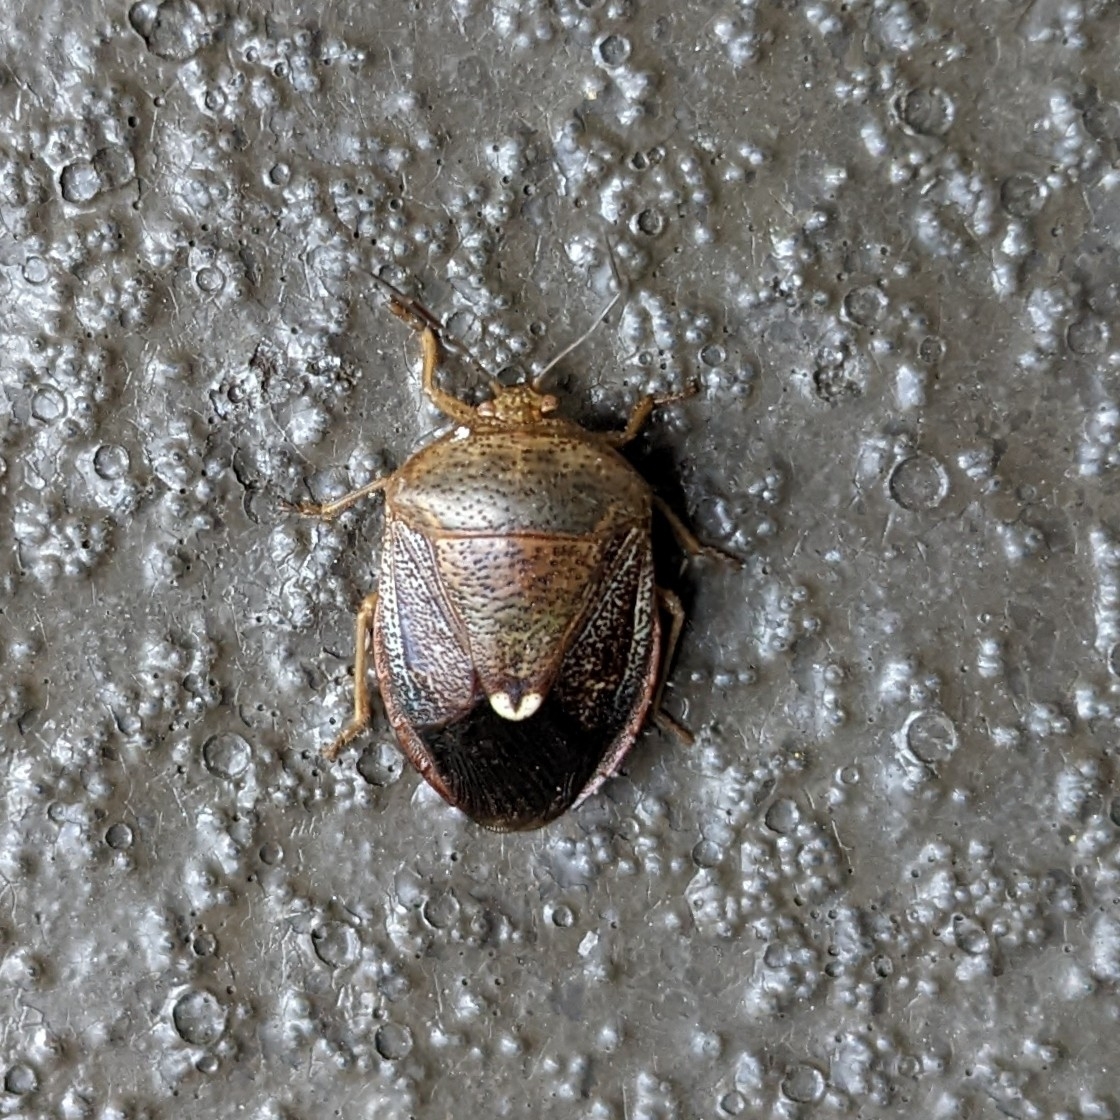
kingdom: Animalia
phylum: Arthropoda
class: Insecta
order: Hemiptera
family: Pentatomidae
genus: Edessa
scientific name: Edessa bifida
